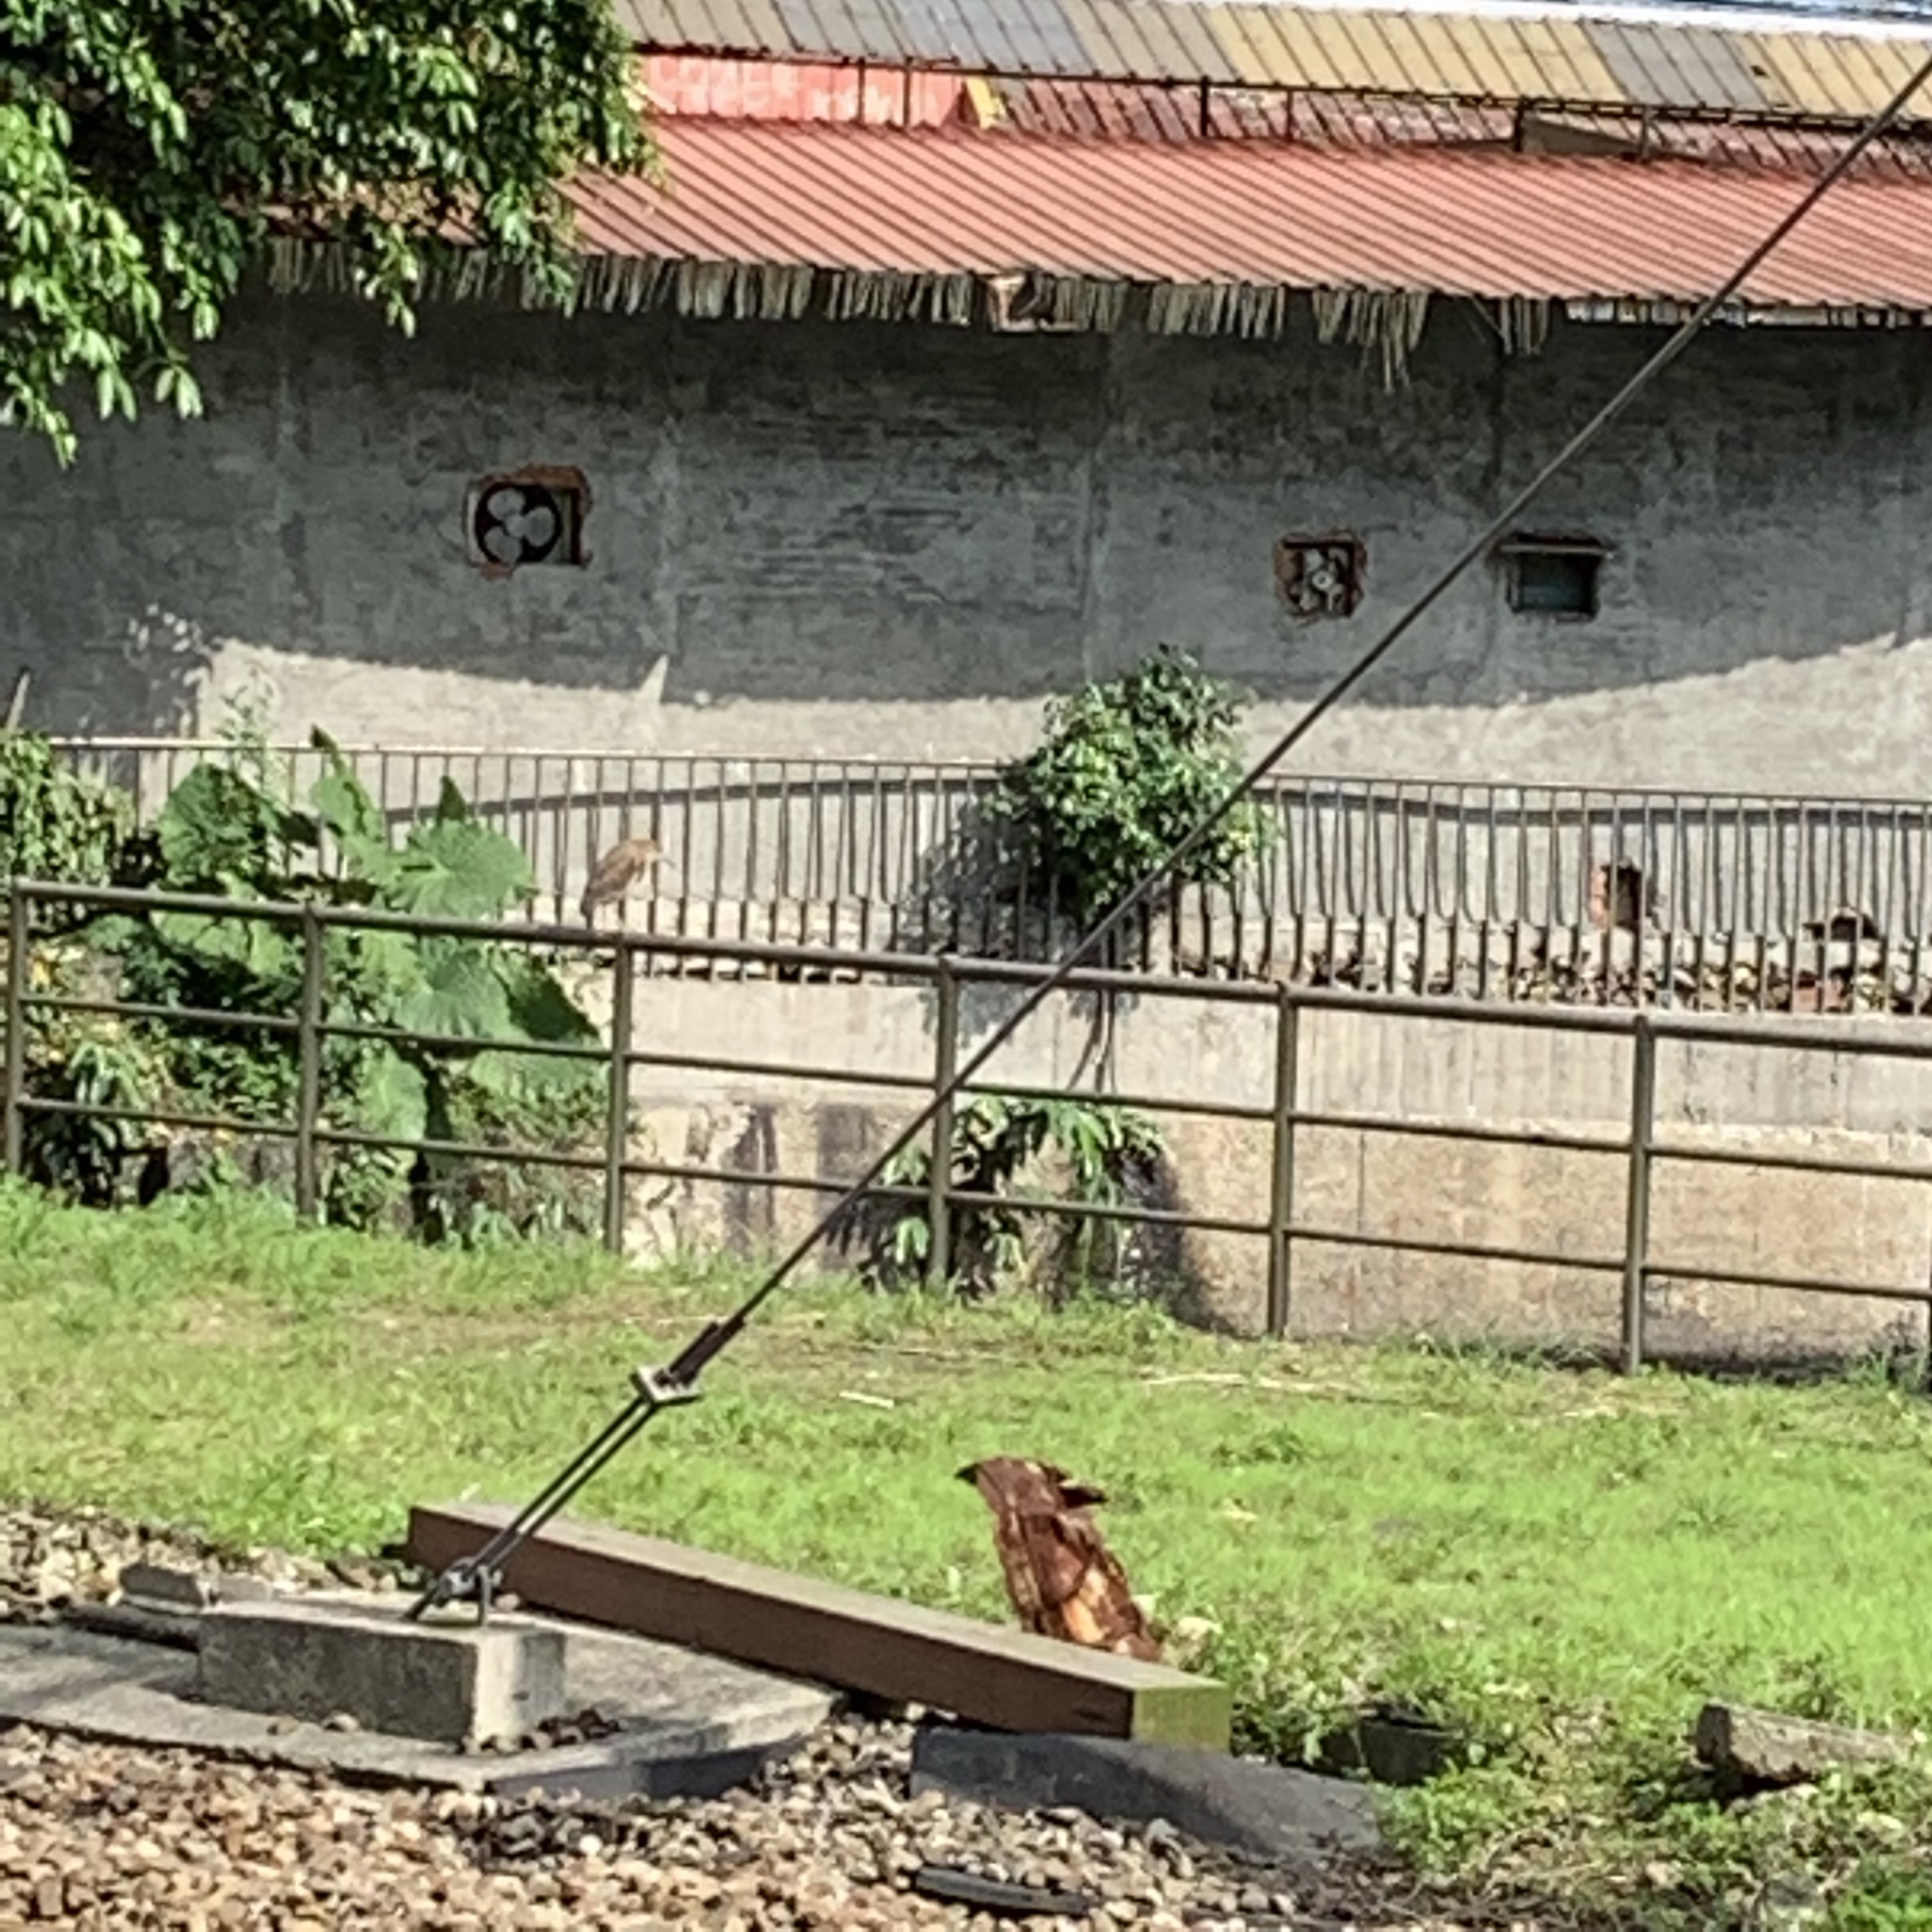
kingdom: Animalia
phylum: Chordata
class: Aves
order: Pelecaniformes
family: Ardeidae
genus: Nycticorax
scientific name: Nycticorax nycticorax
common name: Black-crowned night heron
